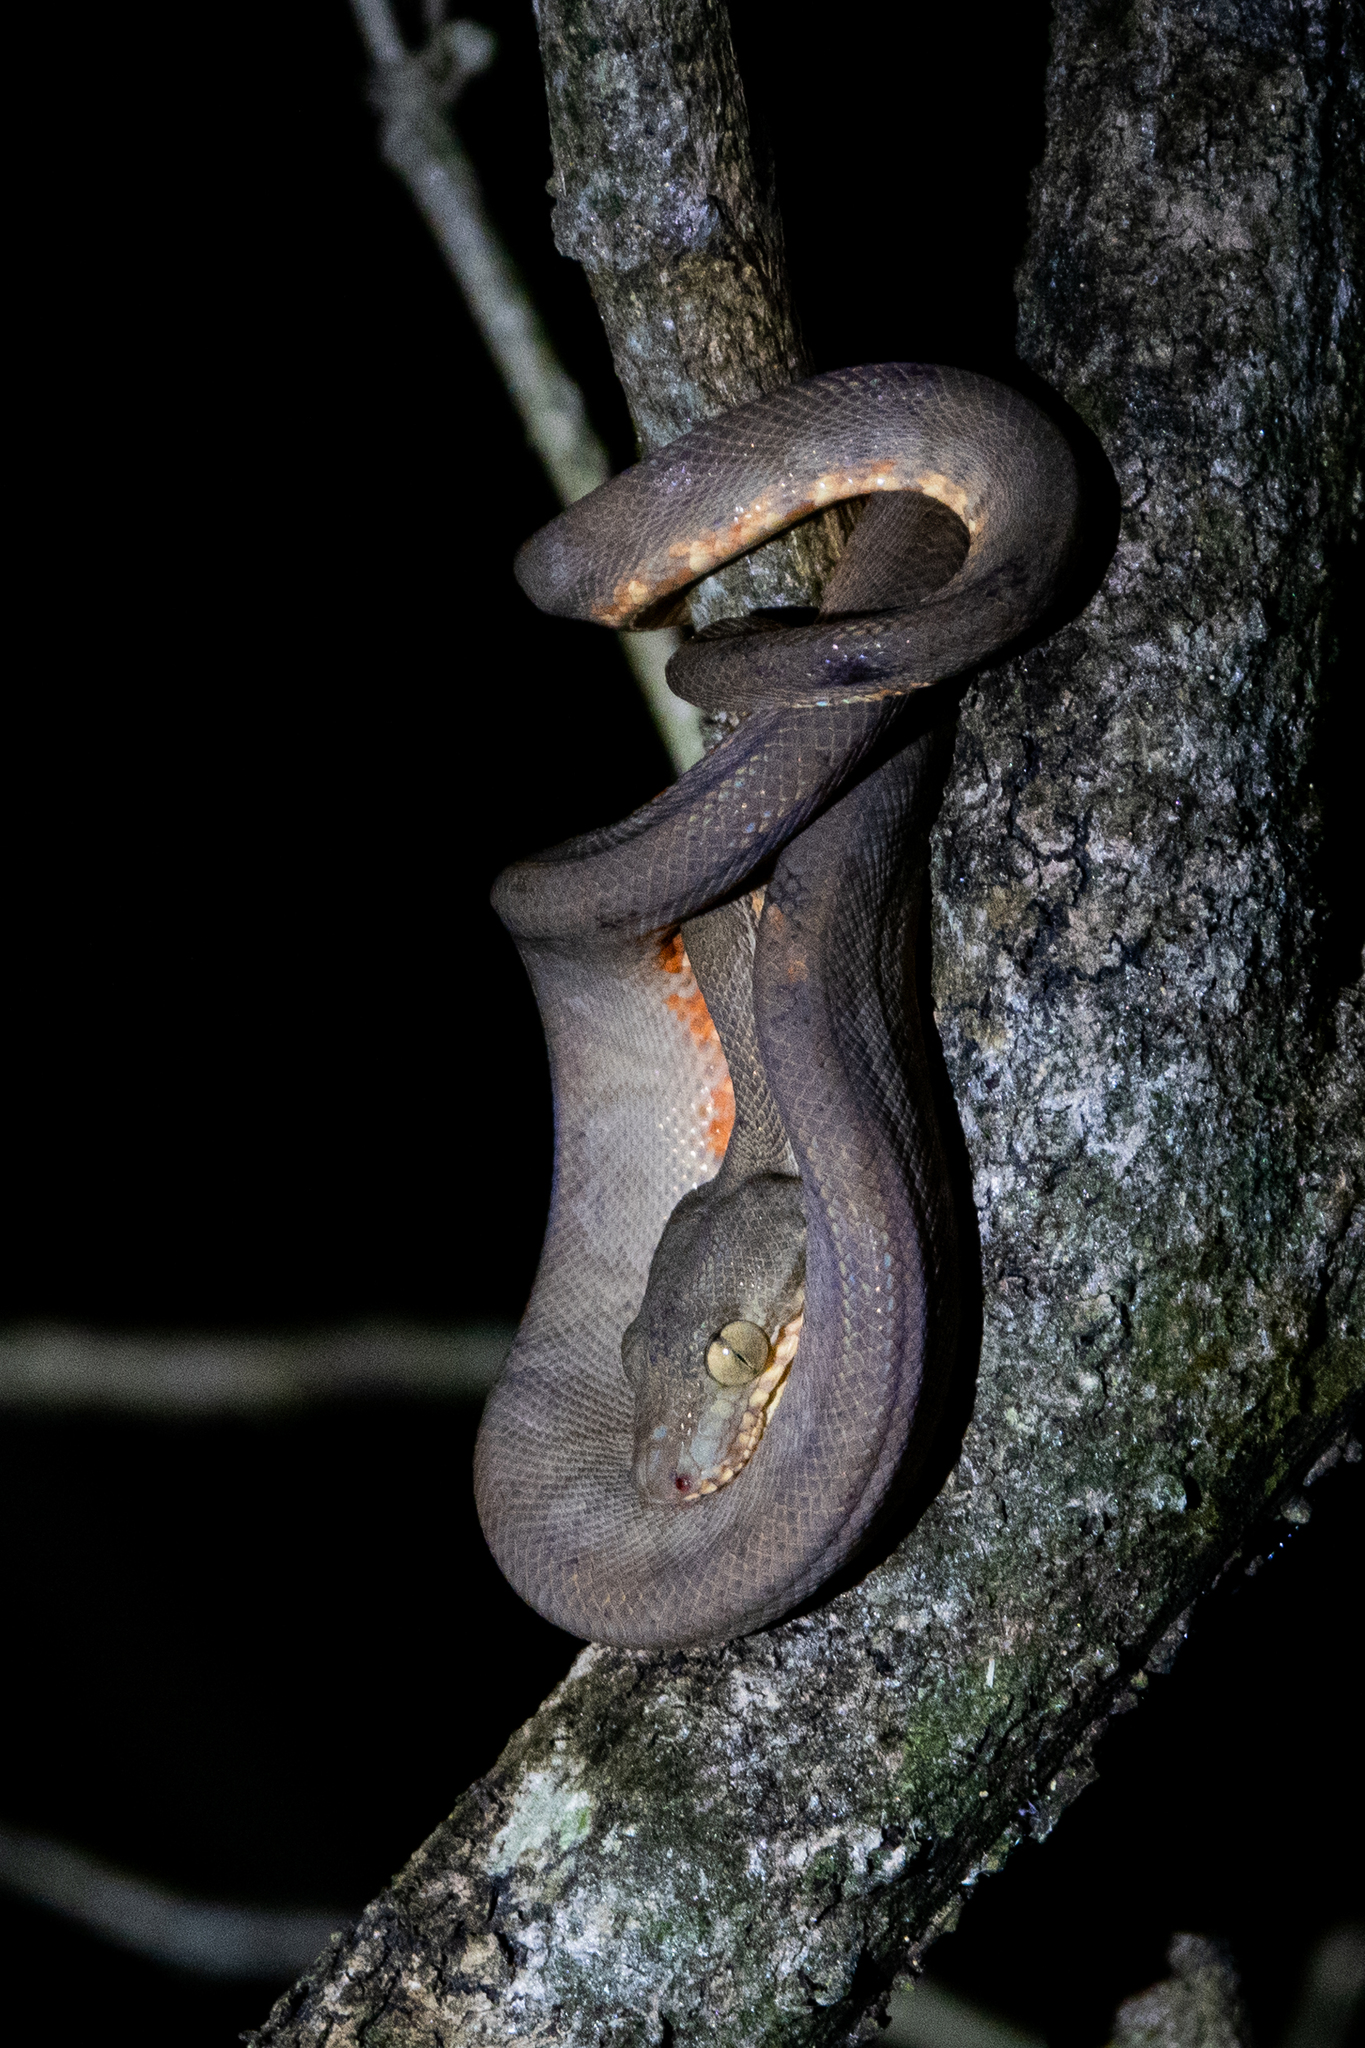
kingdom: Animalia
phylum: Chordata
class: Squamata
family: Boidae
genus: Corallus
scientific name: Corallus hortulana
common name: Garden tree boa
